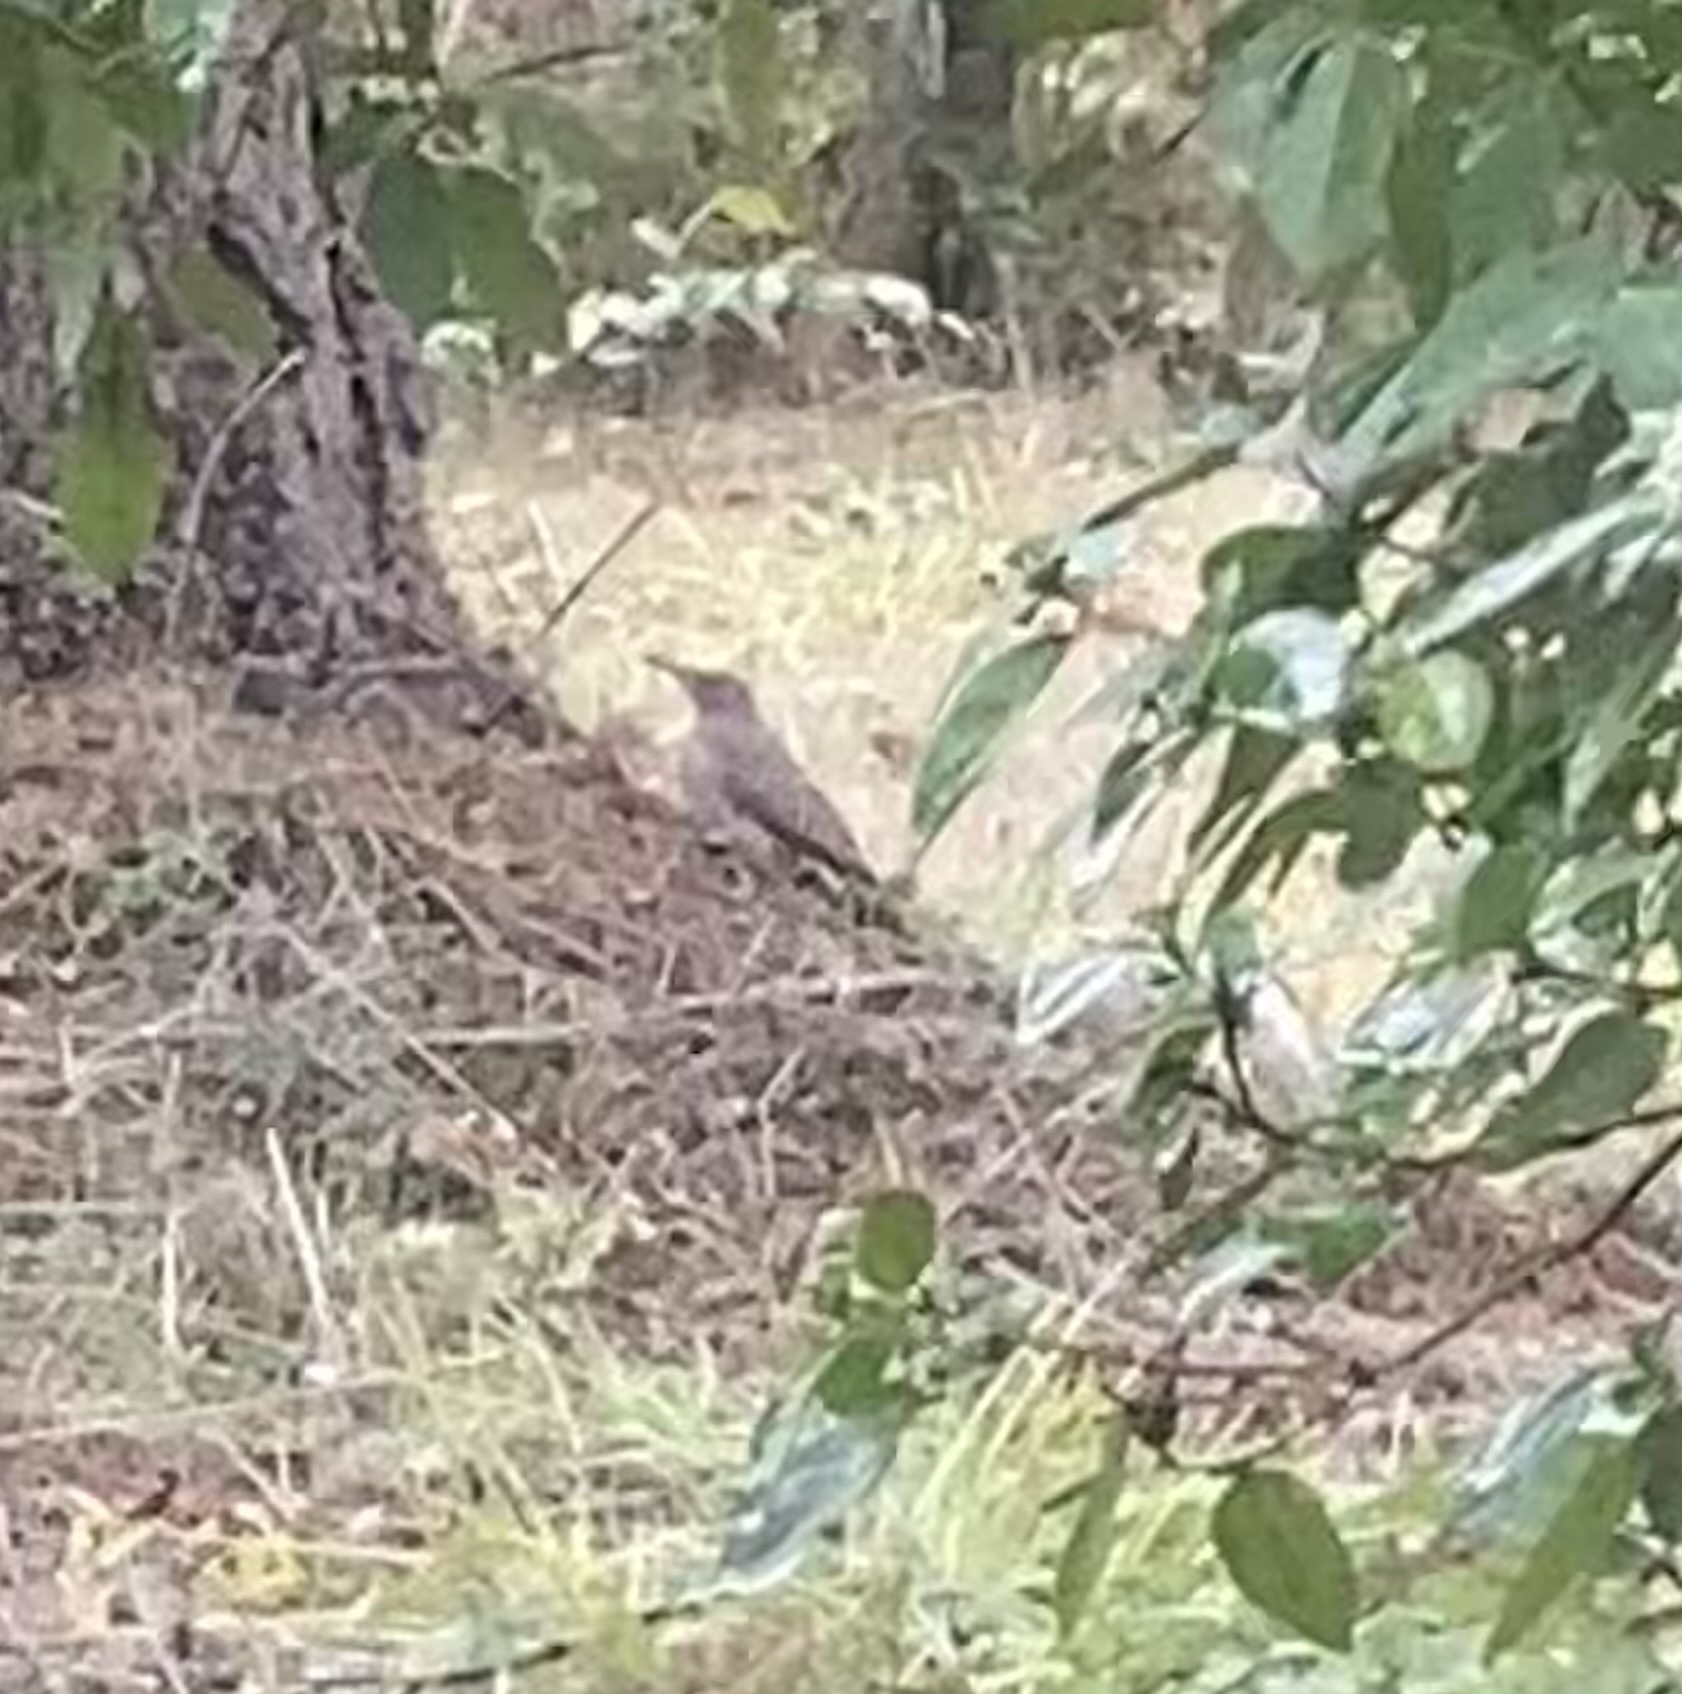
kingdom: Animalia
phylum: Chordata
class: Aves
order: Piciformes
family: Picidae
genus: Colaptes
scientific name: Colaptes auratus
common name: Northern flicker
